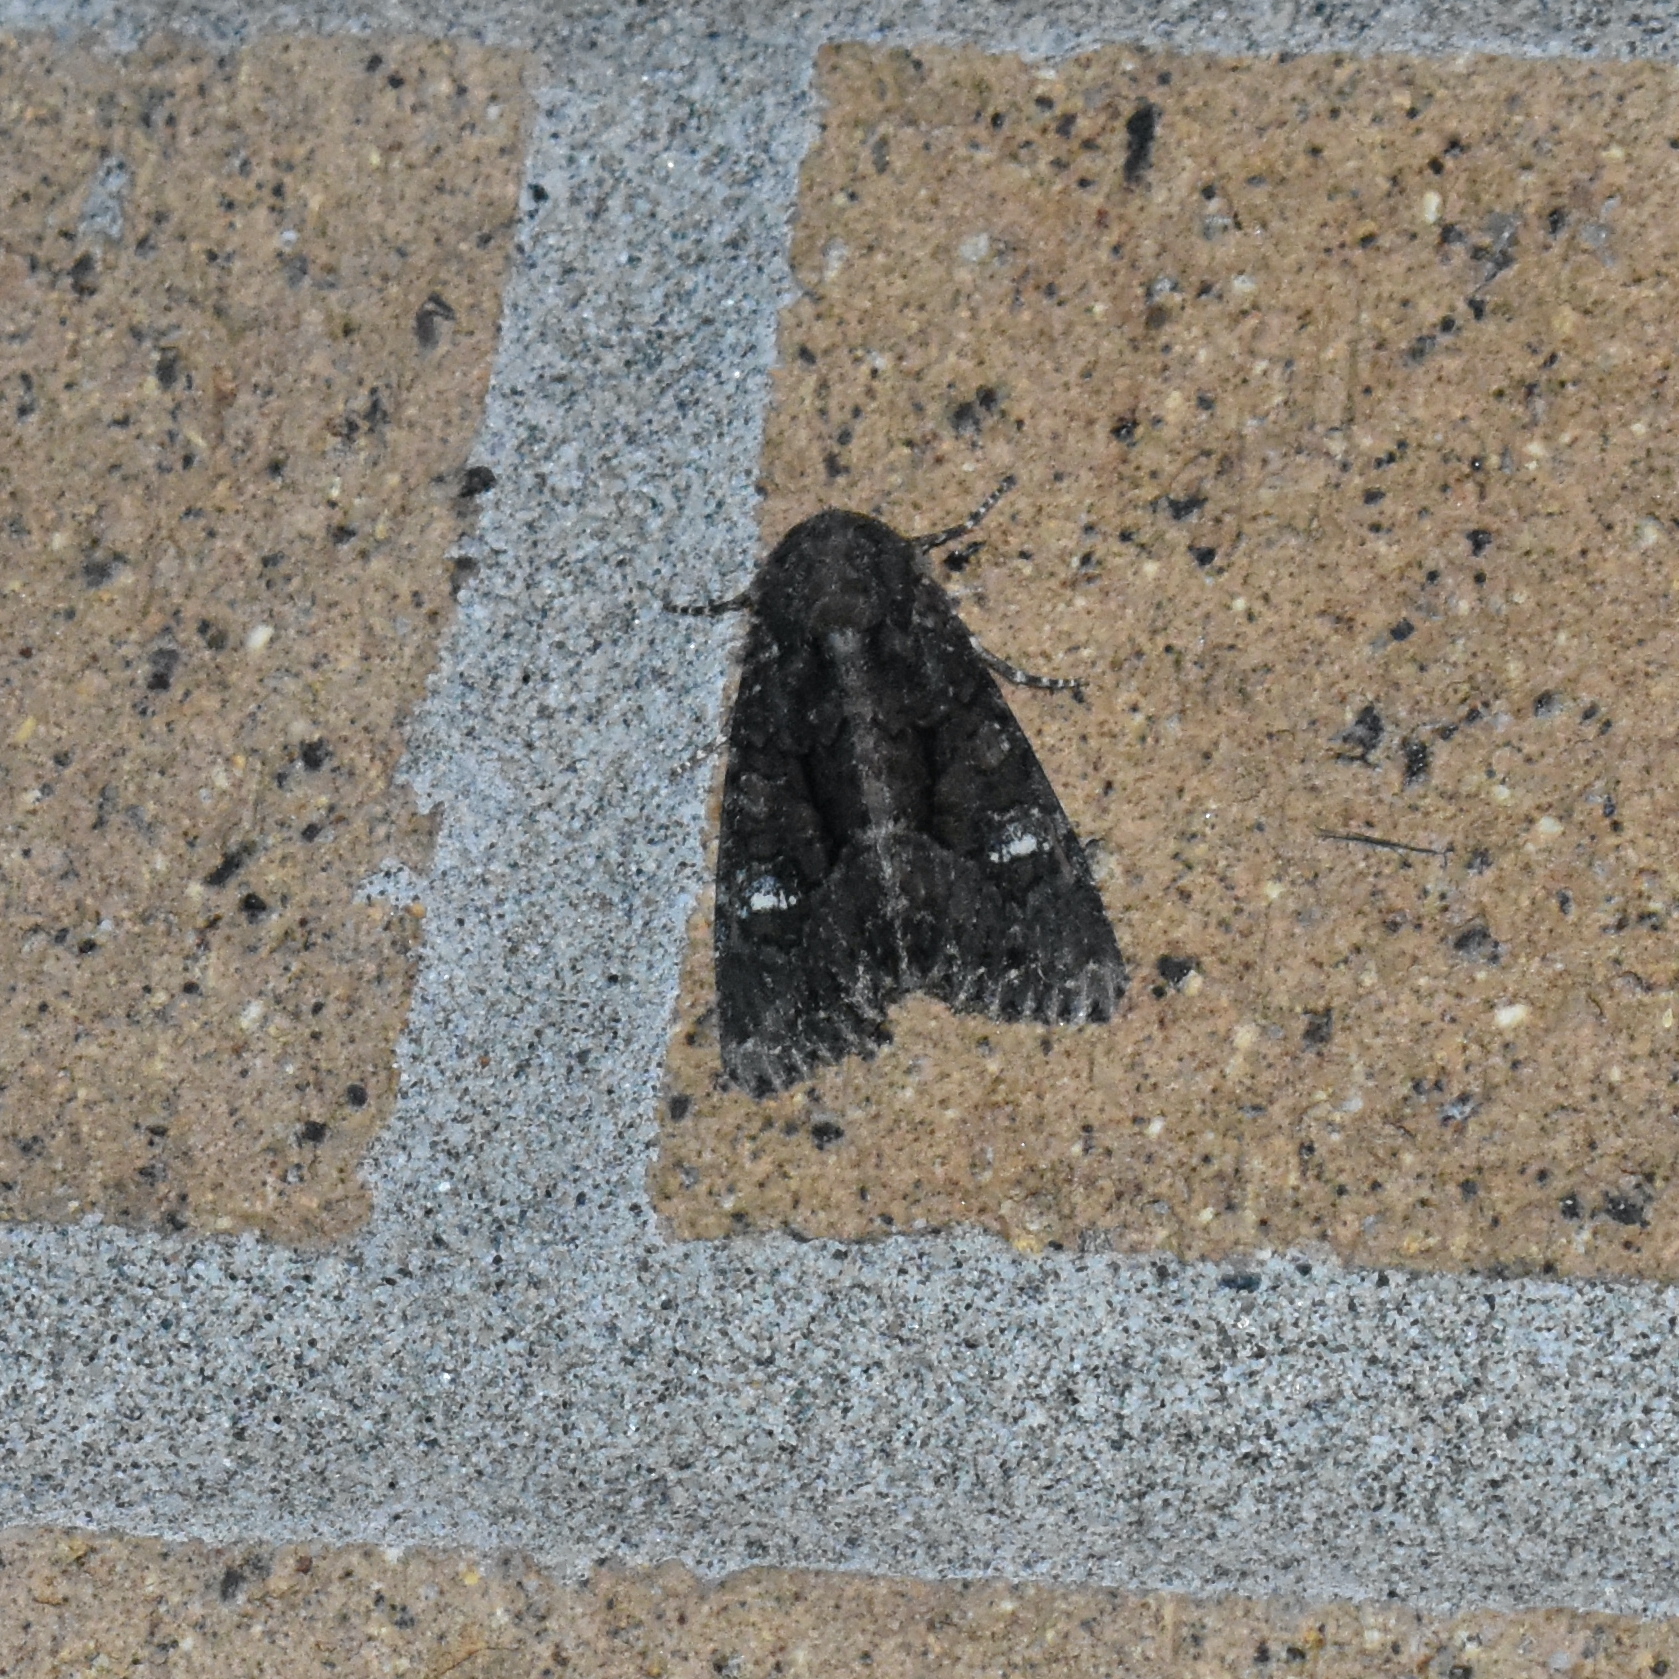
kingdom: Animalia
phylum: Arthropoda
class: Insecta
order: Lepidoptera
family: Noctuidae
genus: Apamea
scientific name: Apamea amputatrix
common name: Yellow-headed cutworm moth
